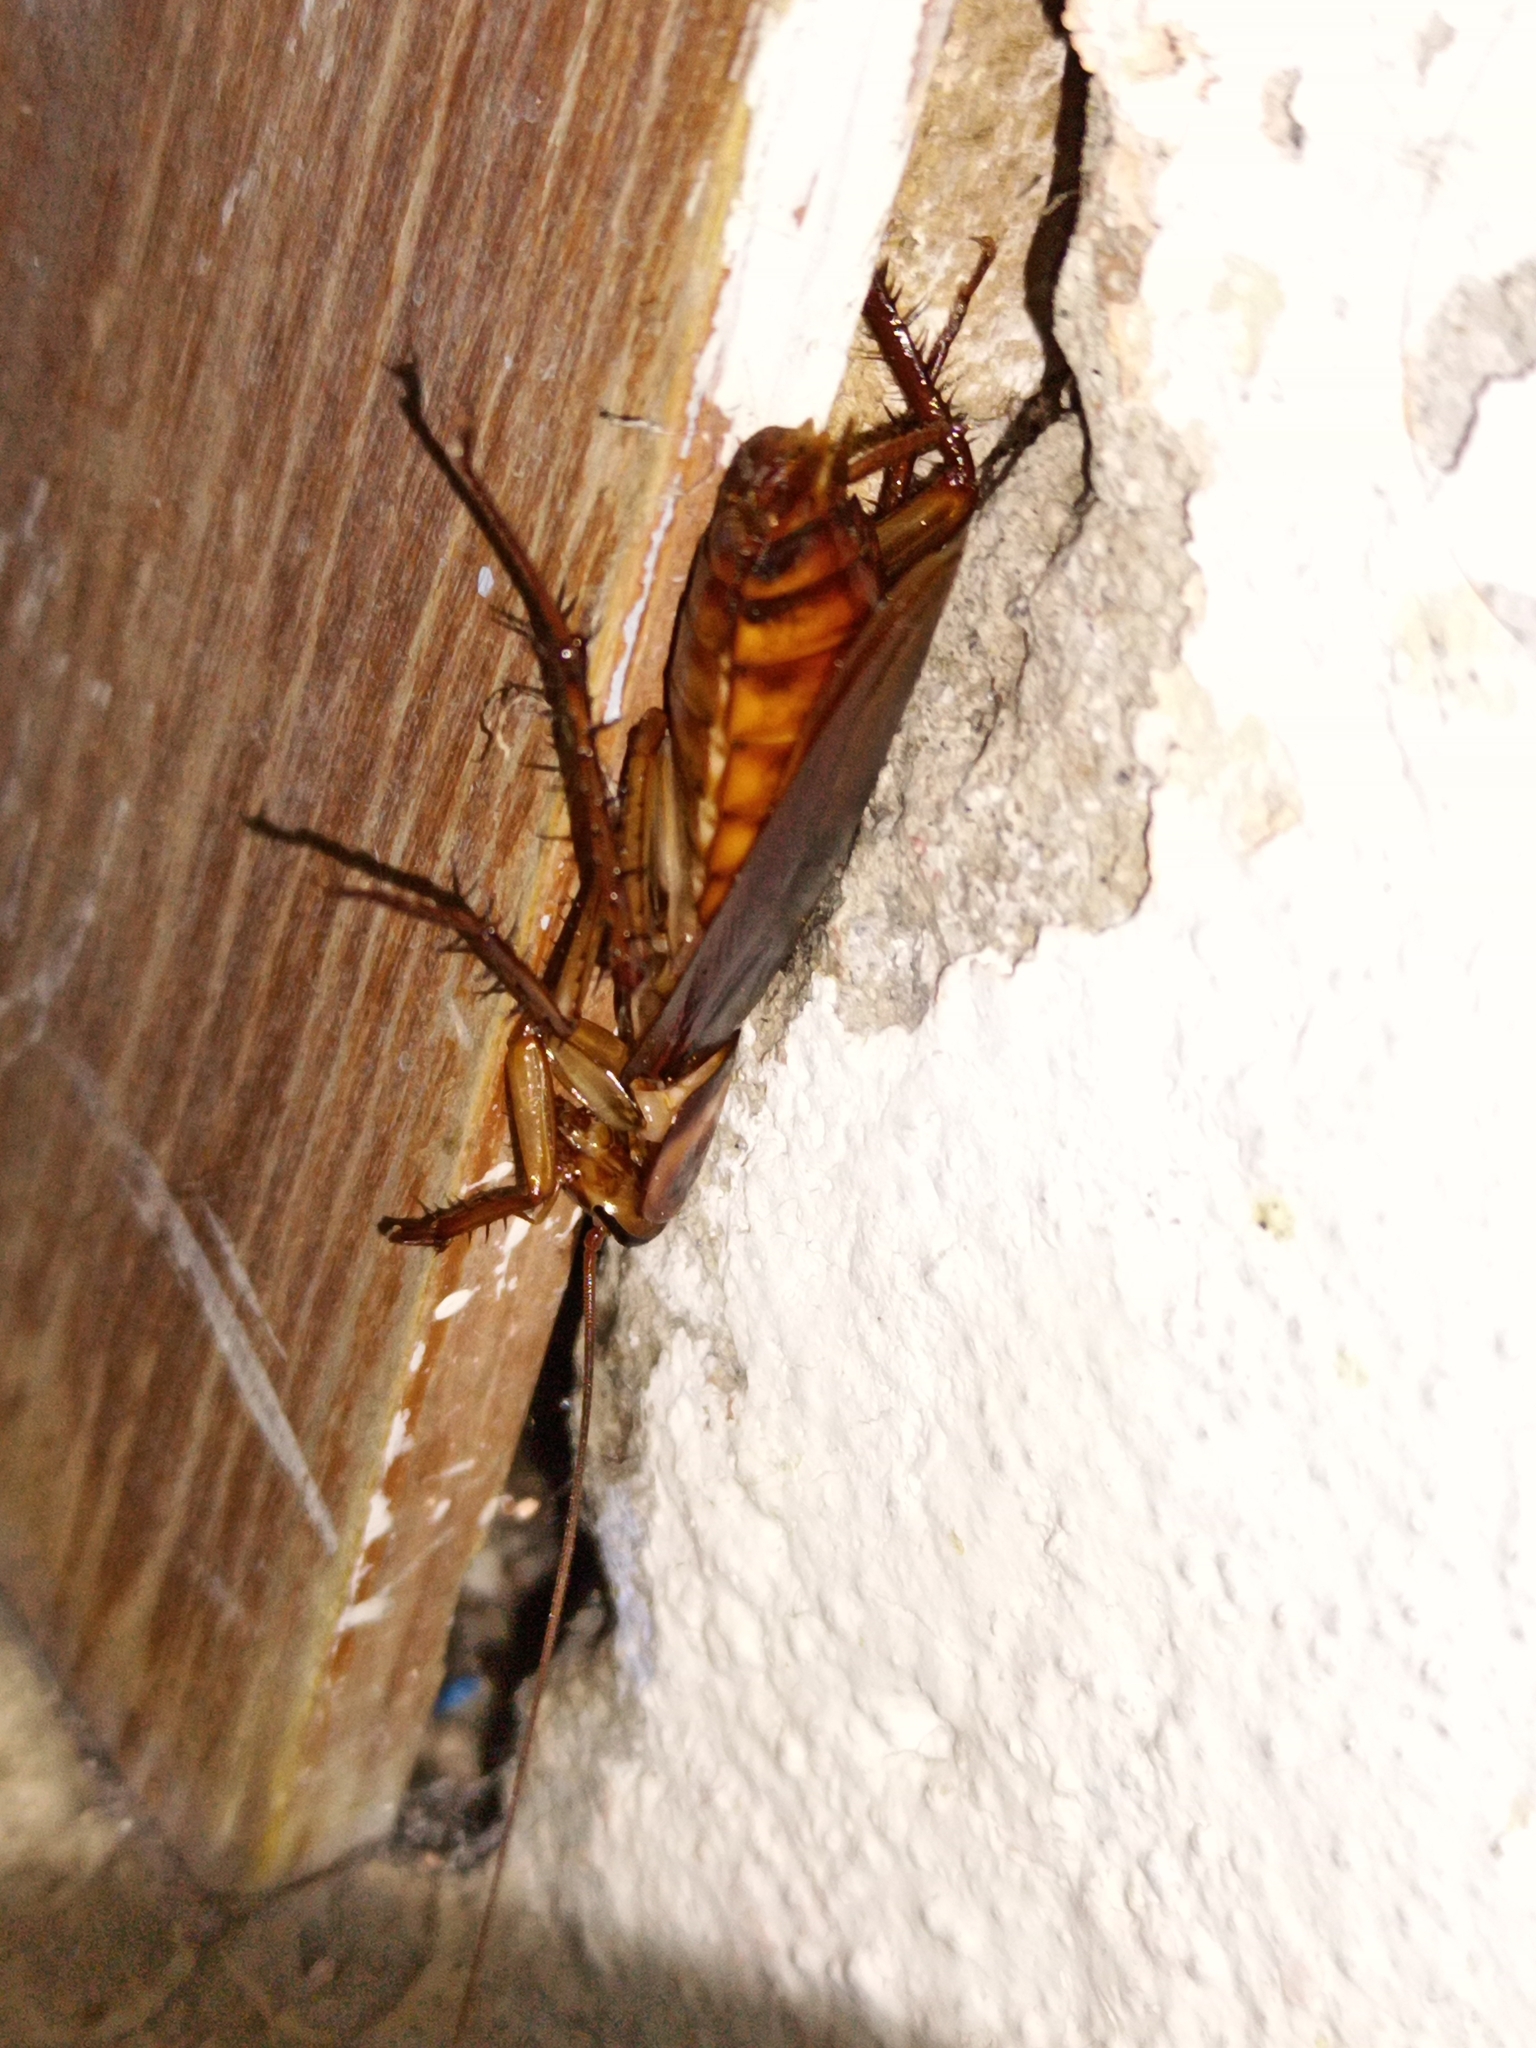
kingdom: Animalia
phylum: Arthropoda
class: Insecta
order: Blattodea
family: Blattidae
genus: Periplaneta
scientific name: Periplaneta americana
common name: American cockroach
